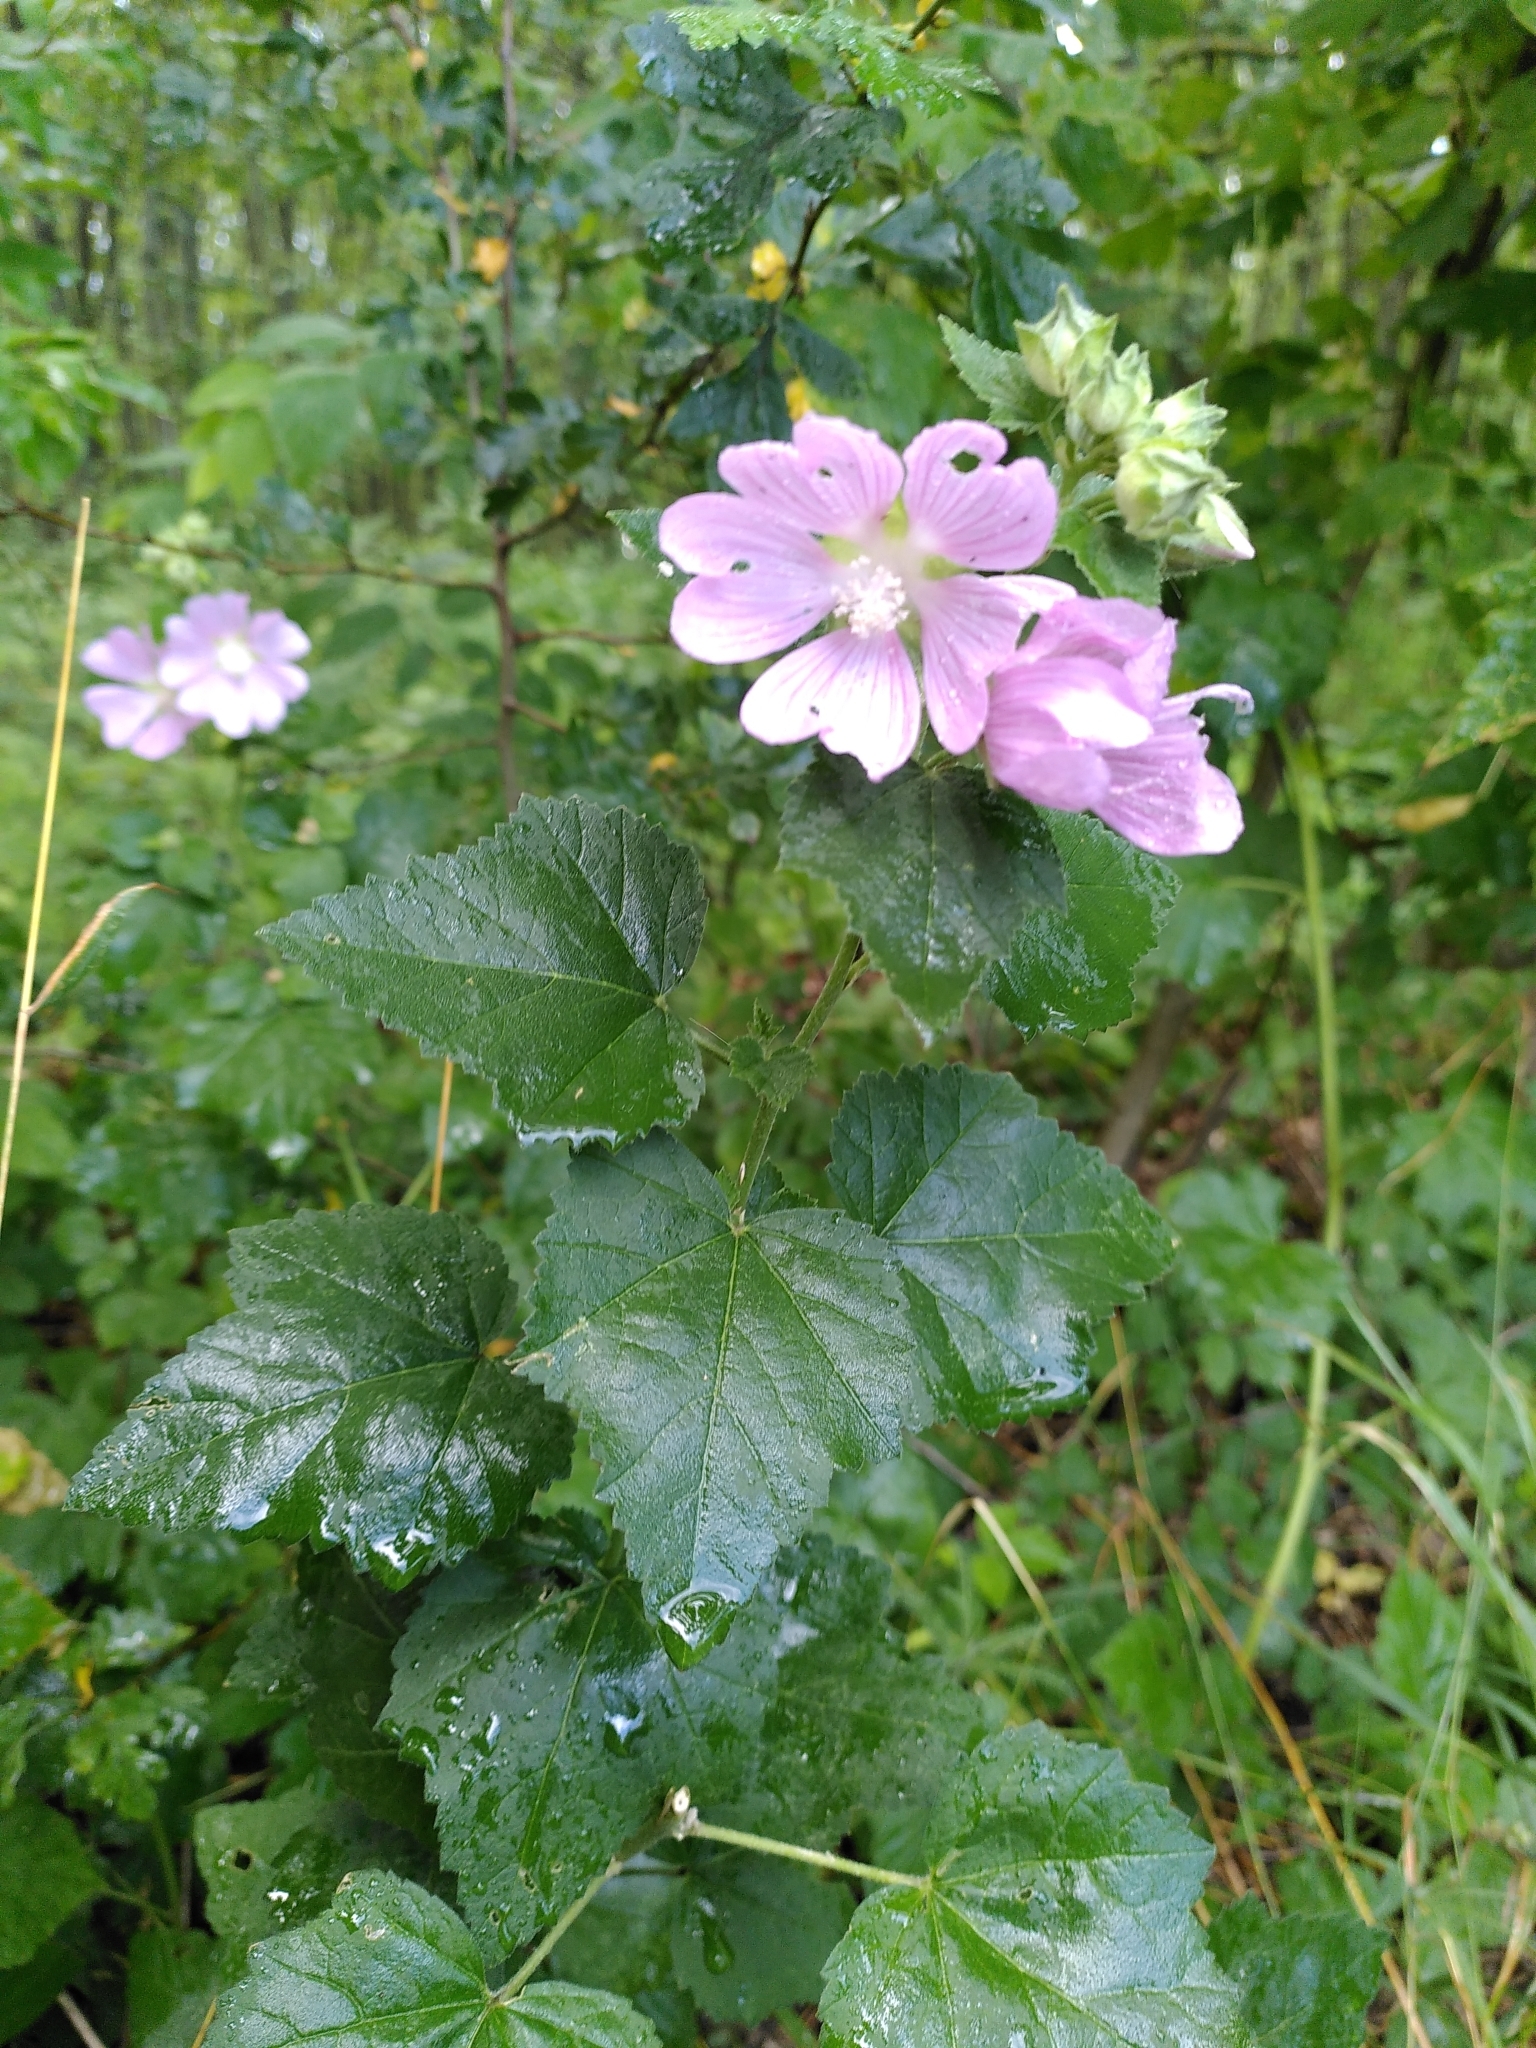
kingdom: Plantae
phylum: Tracheophyta
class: Magnoliopsida
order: Malvales
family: Malvaceae
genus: Malva
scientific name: Malva thuringiaca
